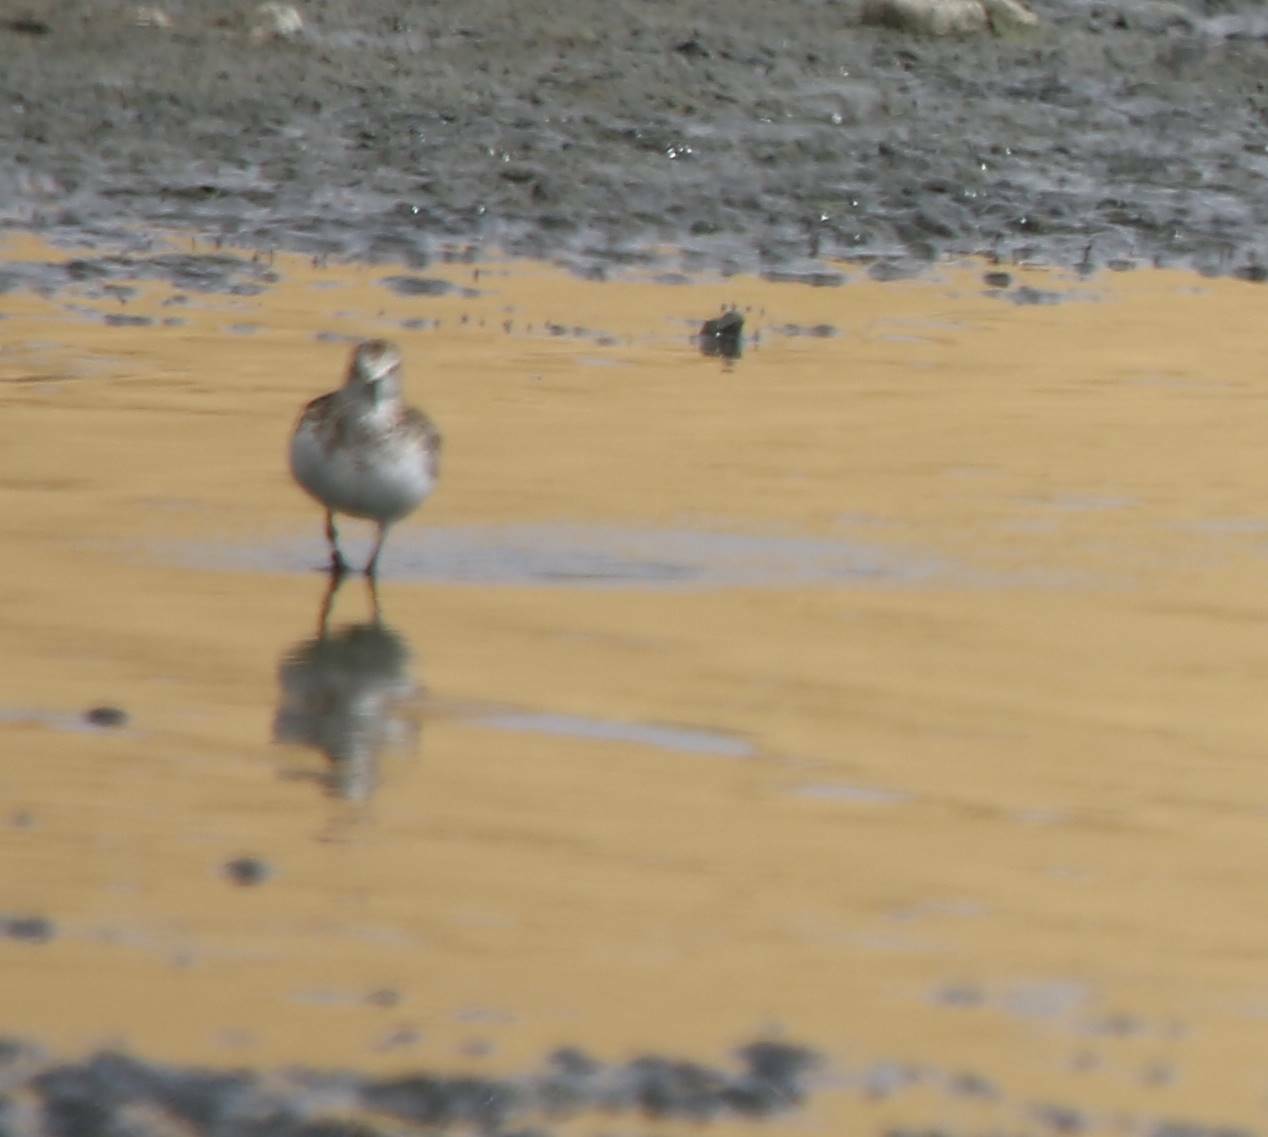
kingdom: Animalia
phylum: Chordata
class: Aves
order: Charadriiformes
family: Scolopacidae
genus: Calidris
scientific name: Calidris minuta
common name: Little stint
